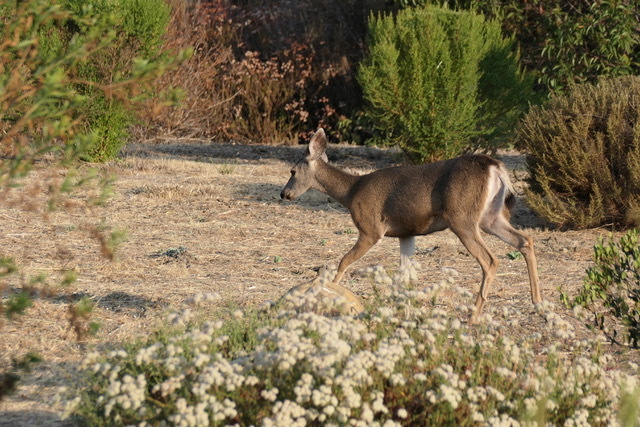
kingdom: Animalia
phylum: Chordata
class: Mammalia
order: Artiodactyla
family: Cervidae
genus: Odocoileus
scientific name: Odocoileus hemionus
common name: Mule deer
